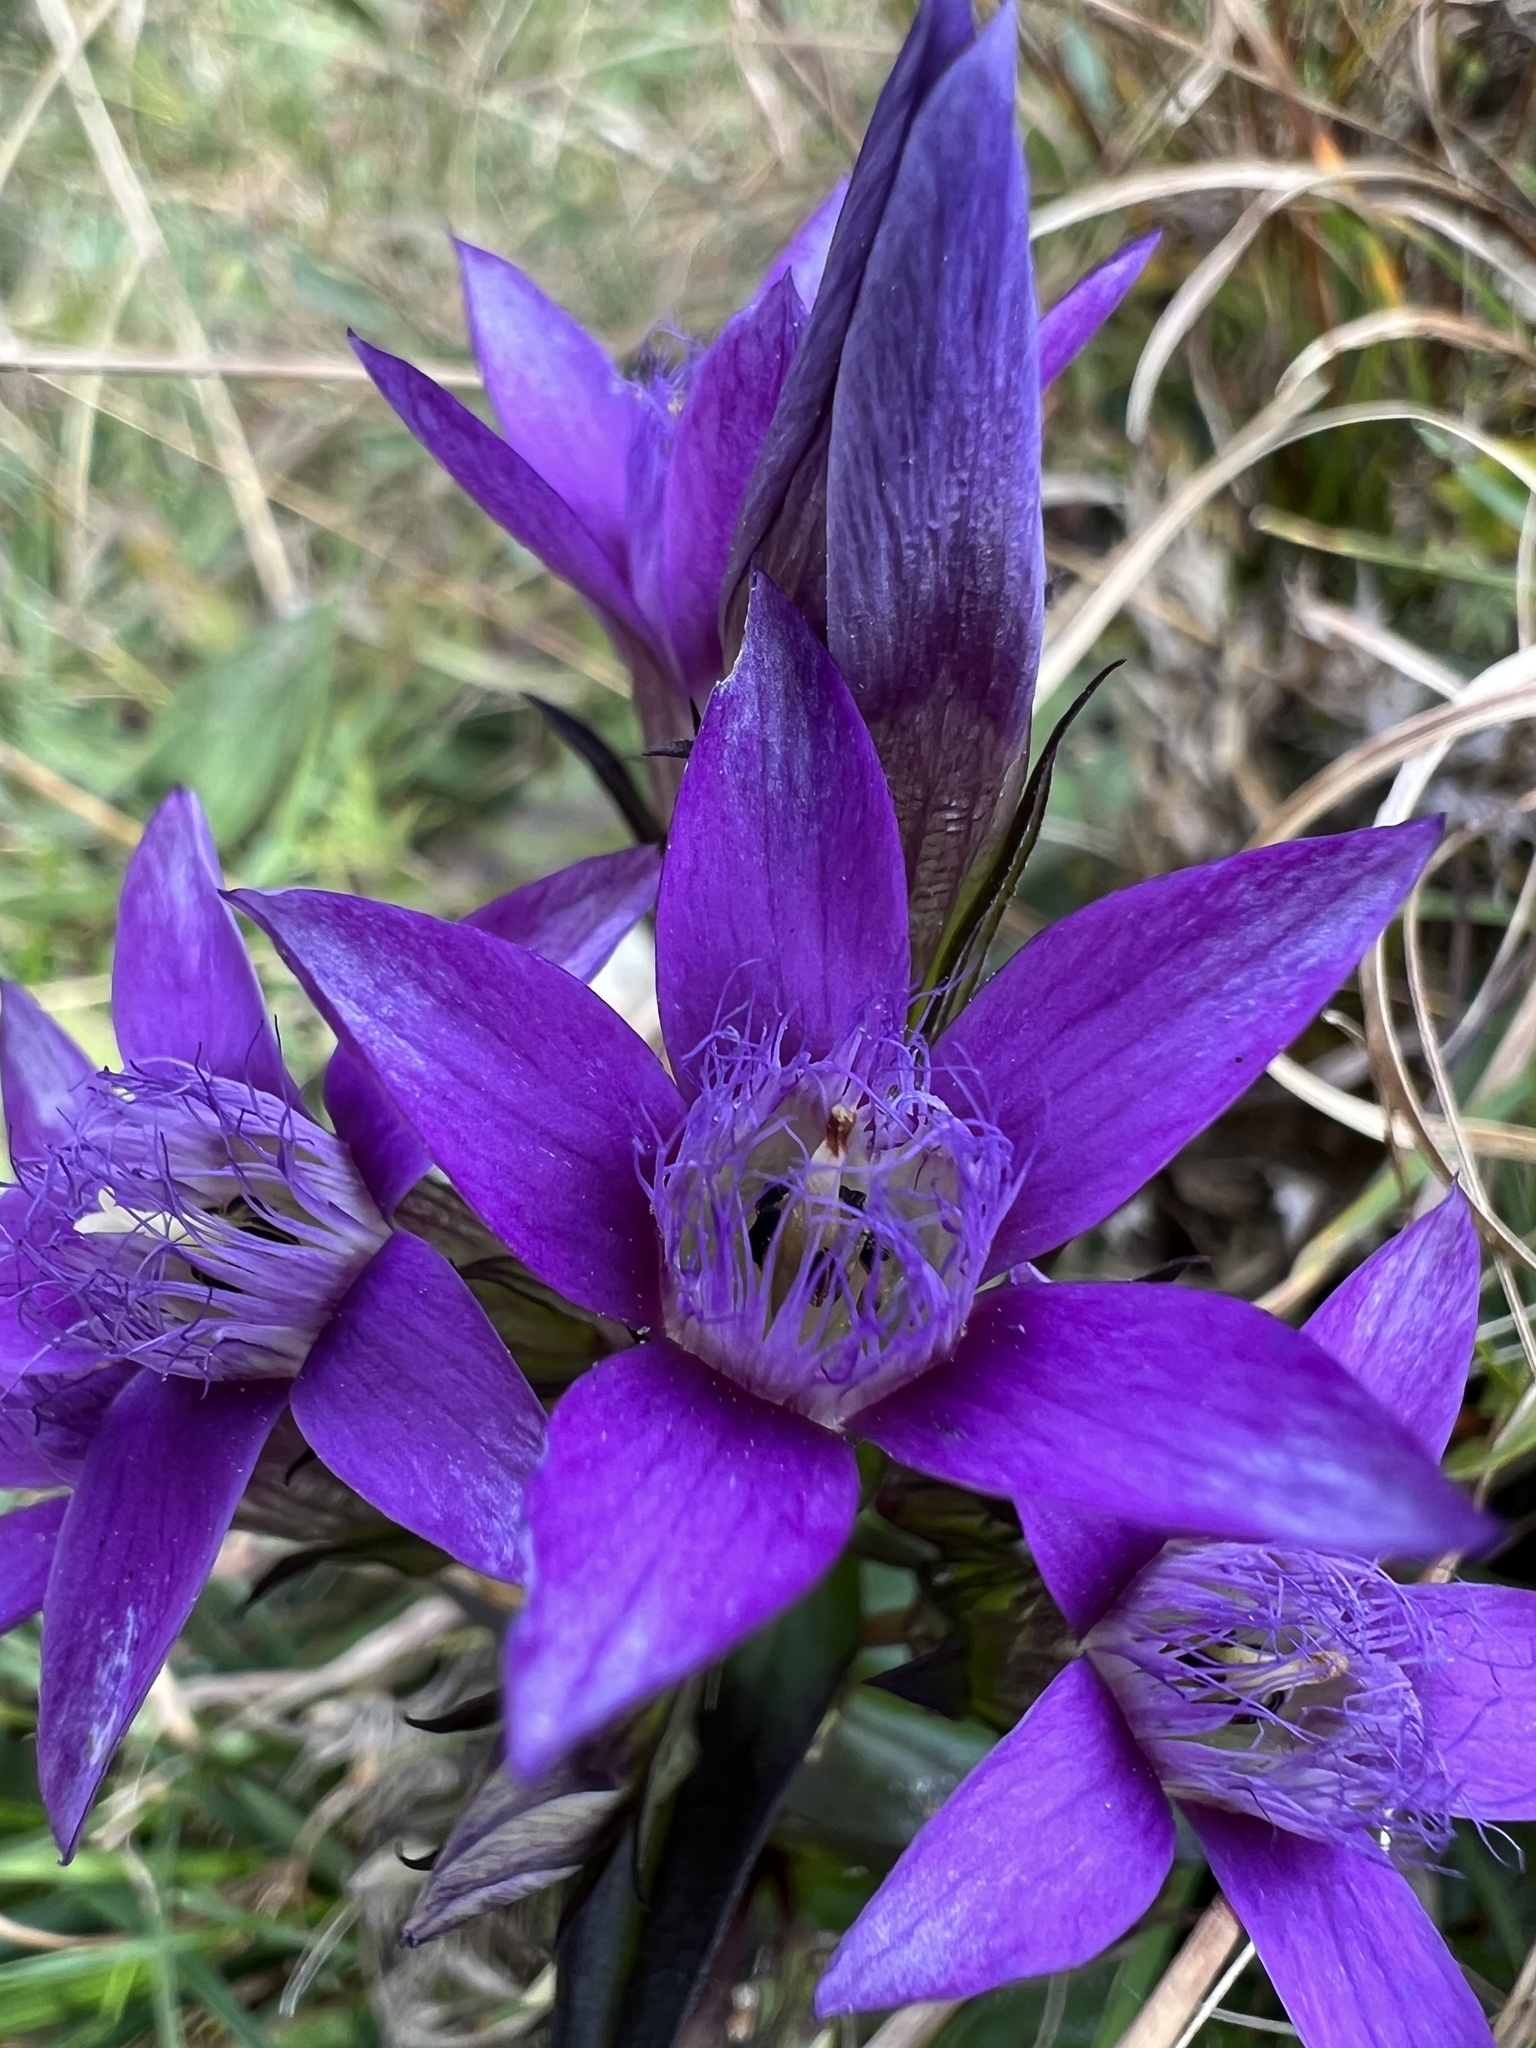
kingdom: Plantae
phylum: Tracheophyta
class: Magnoliopsida
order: Gentianales
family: Gentianaceae
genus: Gentianella
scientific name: Gentianella germanica
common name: Chiltern-gentian
